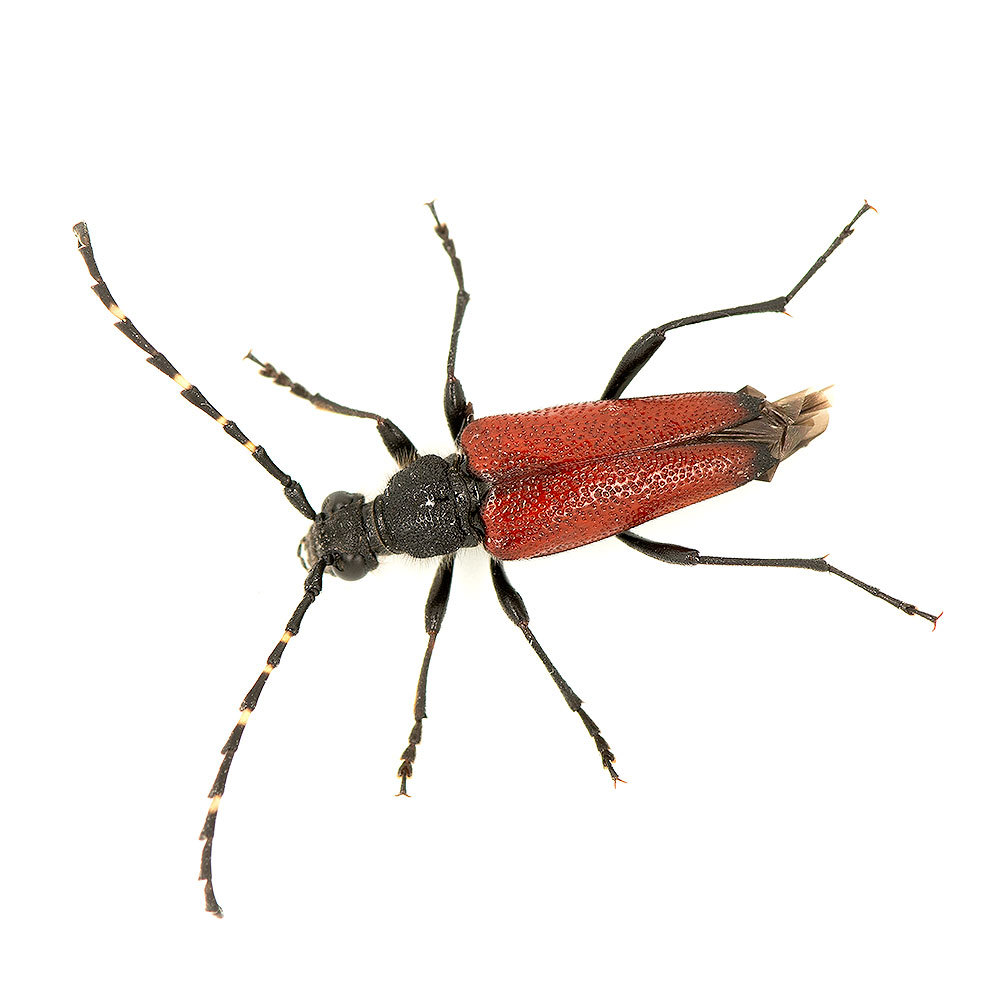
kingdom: Animalia
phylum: Arthropoda
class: Insecta
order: Coleoptera
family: Cerambycidae
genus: Stictoleptura
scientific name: Stictoleptura canadensis
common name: Red-shouldered pine borer
